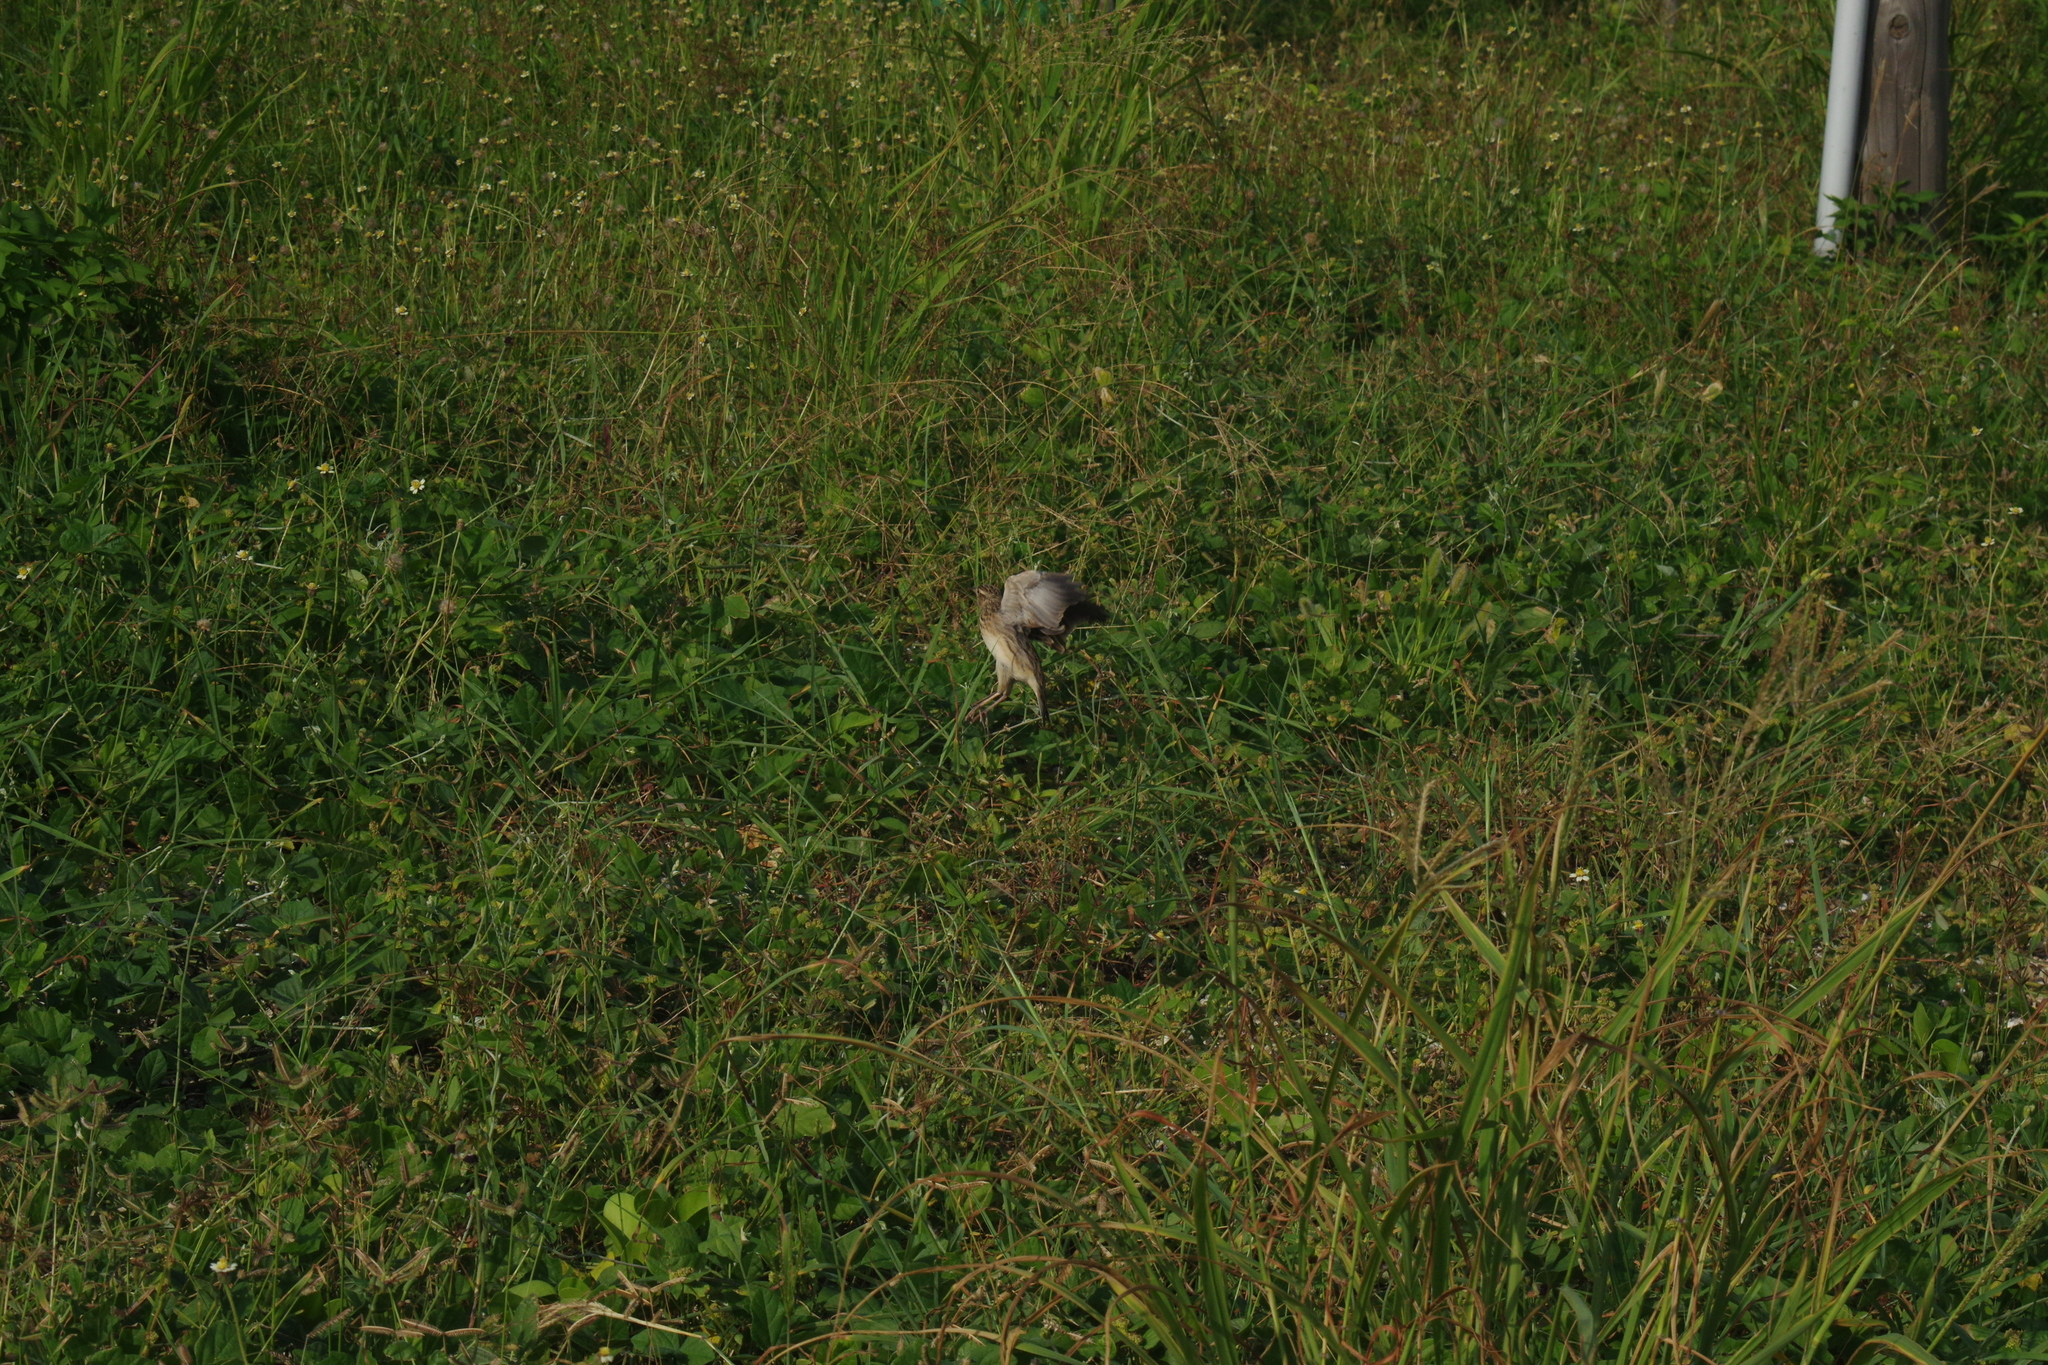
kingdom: Animalia
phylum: Chordata
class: Aves
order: Passeriformes
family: Alaudidae
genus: Alauda
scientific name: Alauda gulgula
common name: Oriental skylark
